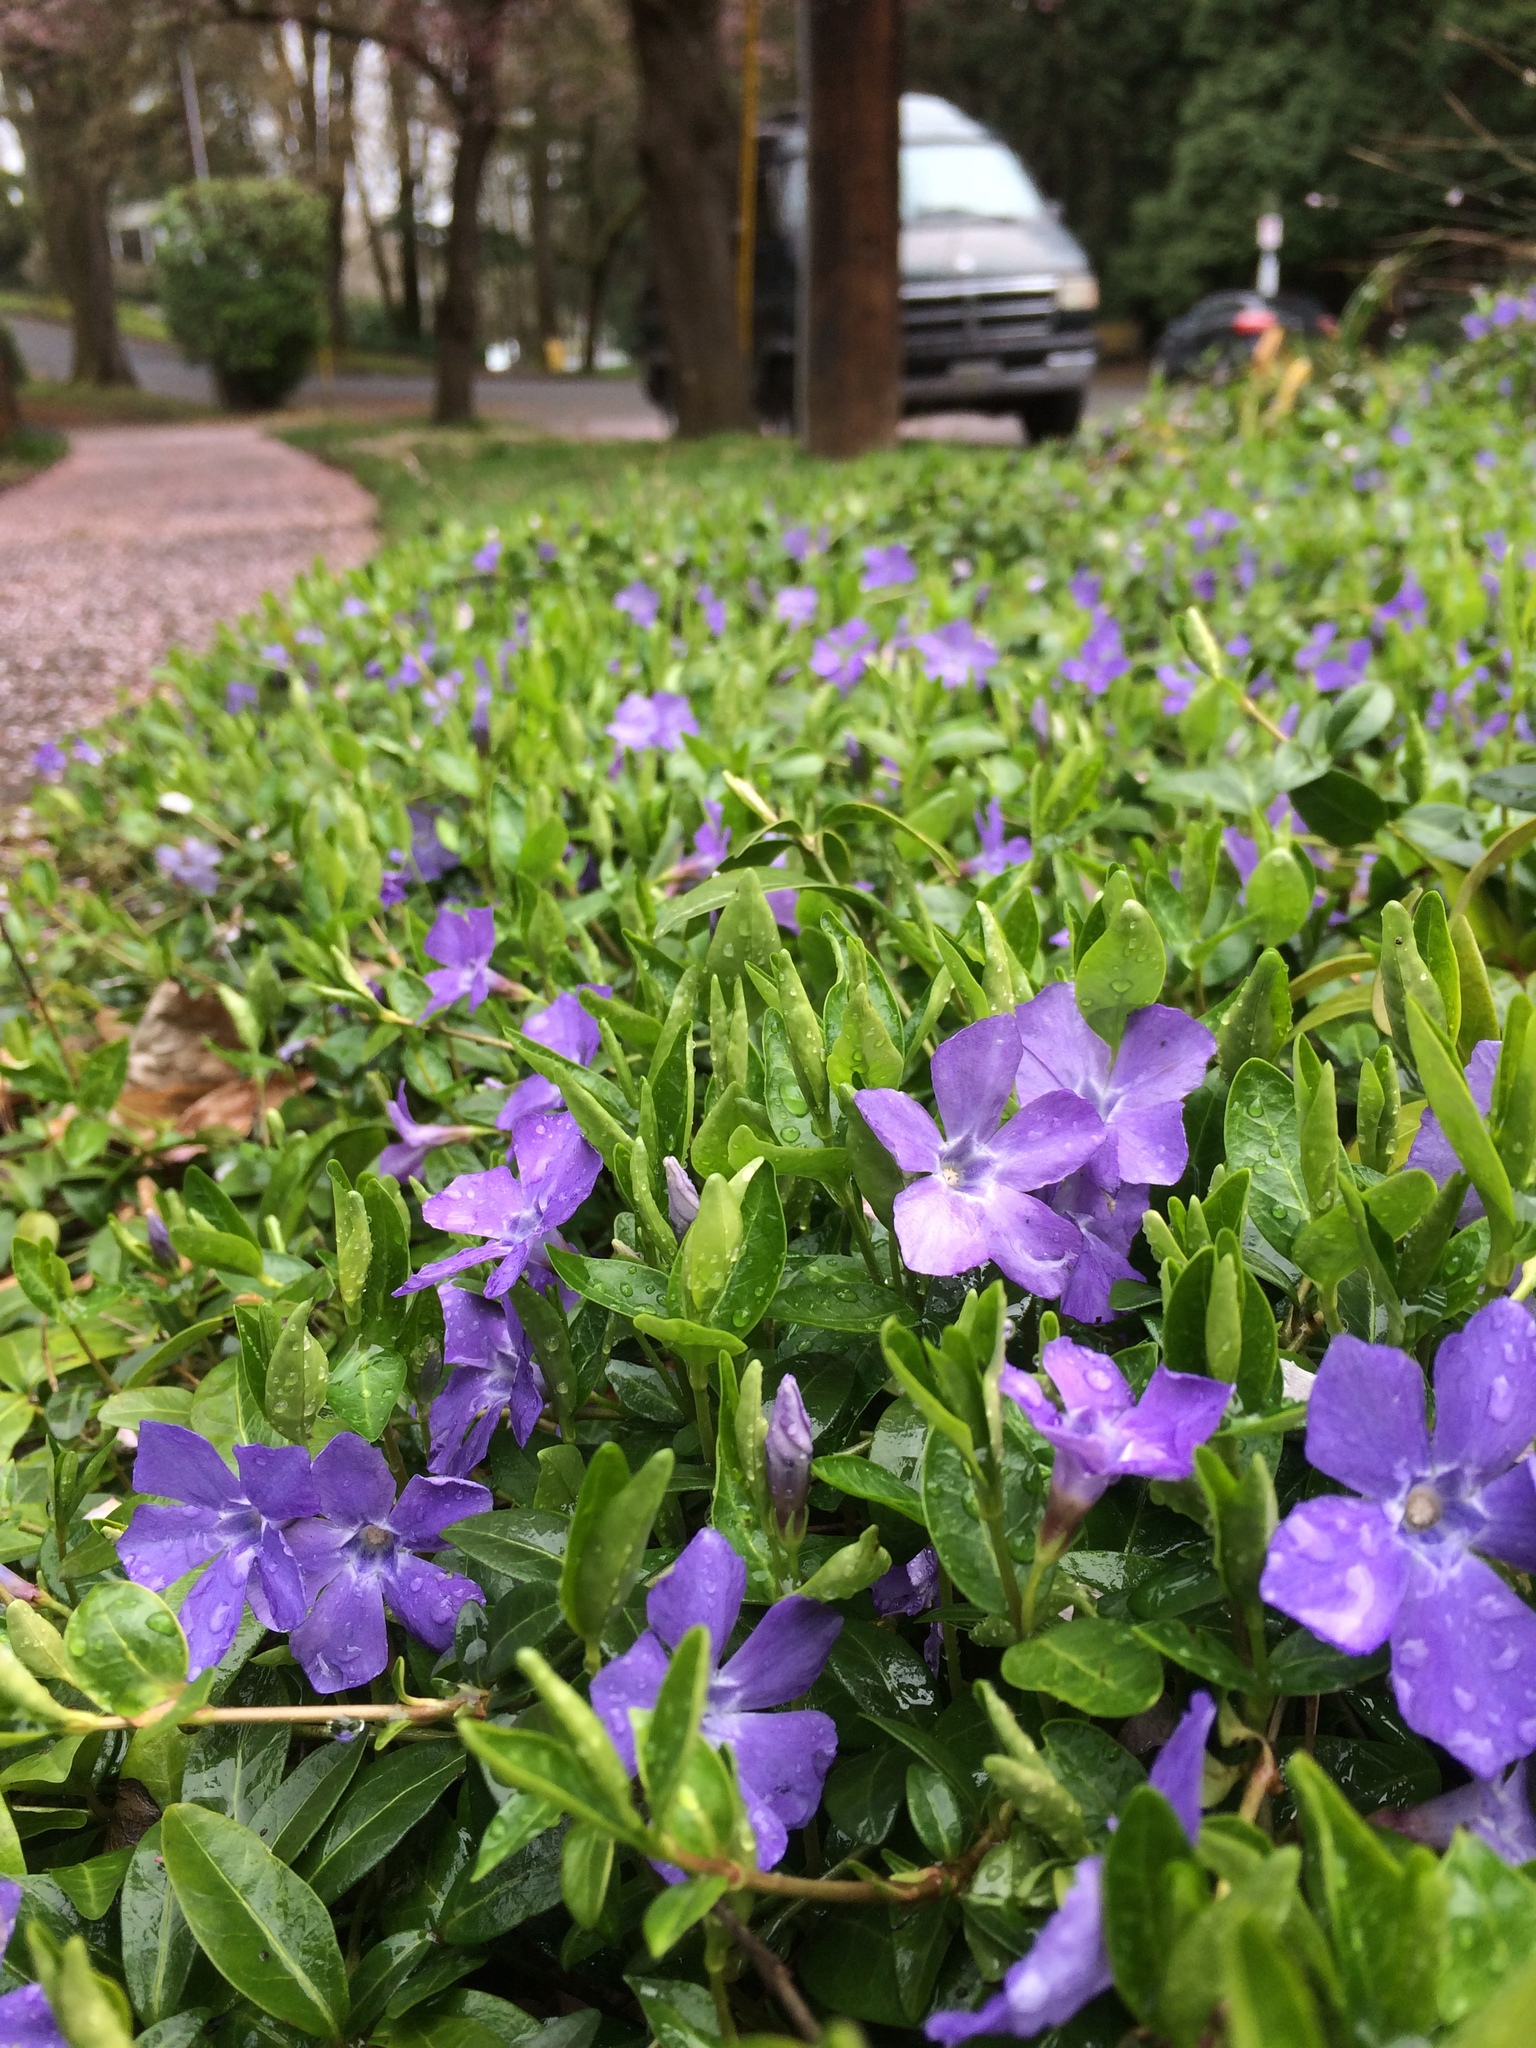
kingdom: Plantae
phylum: Tracheophyta
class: Magnoliopsida
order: Gentianales
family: Apocynaceae
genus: Vinca
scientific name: Vinca minor
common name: Lesser periwinkle
